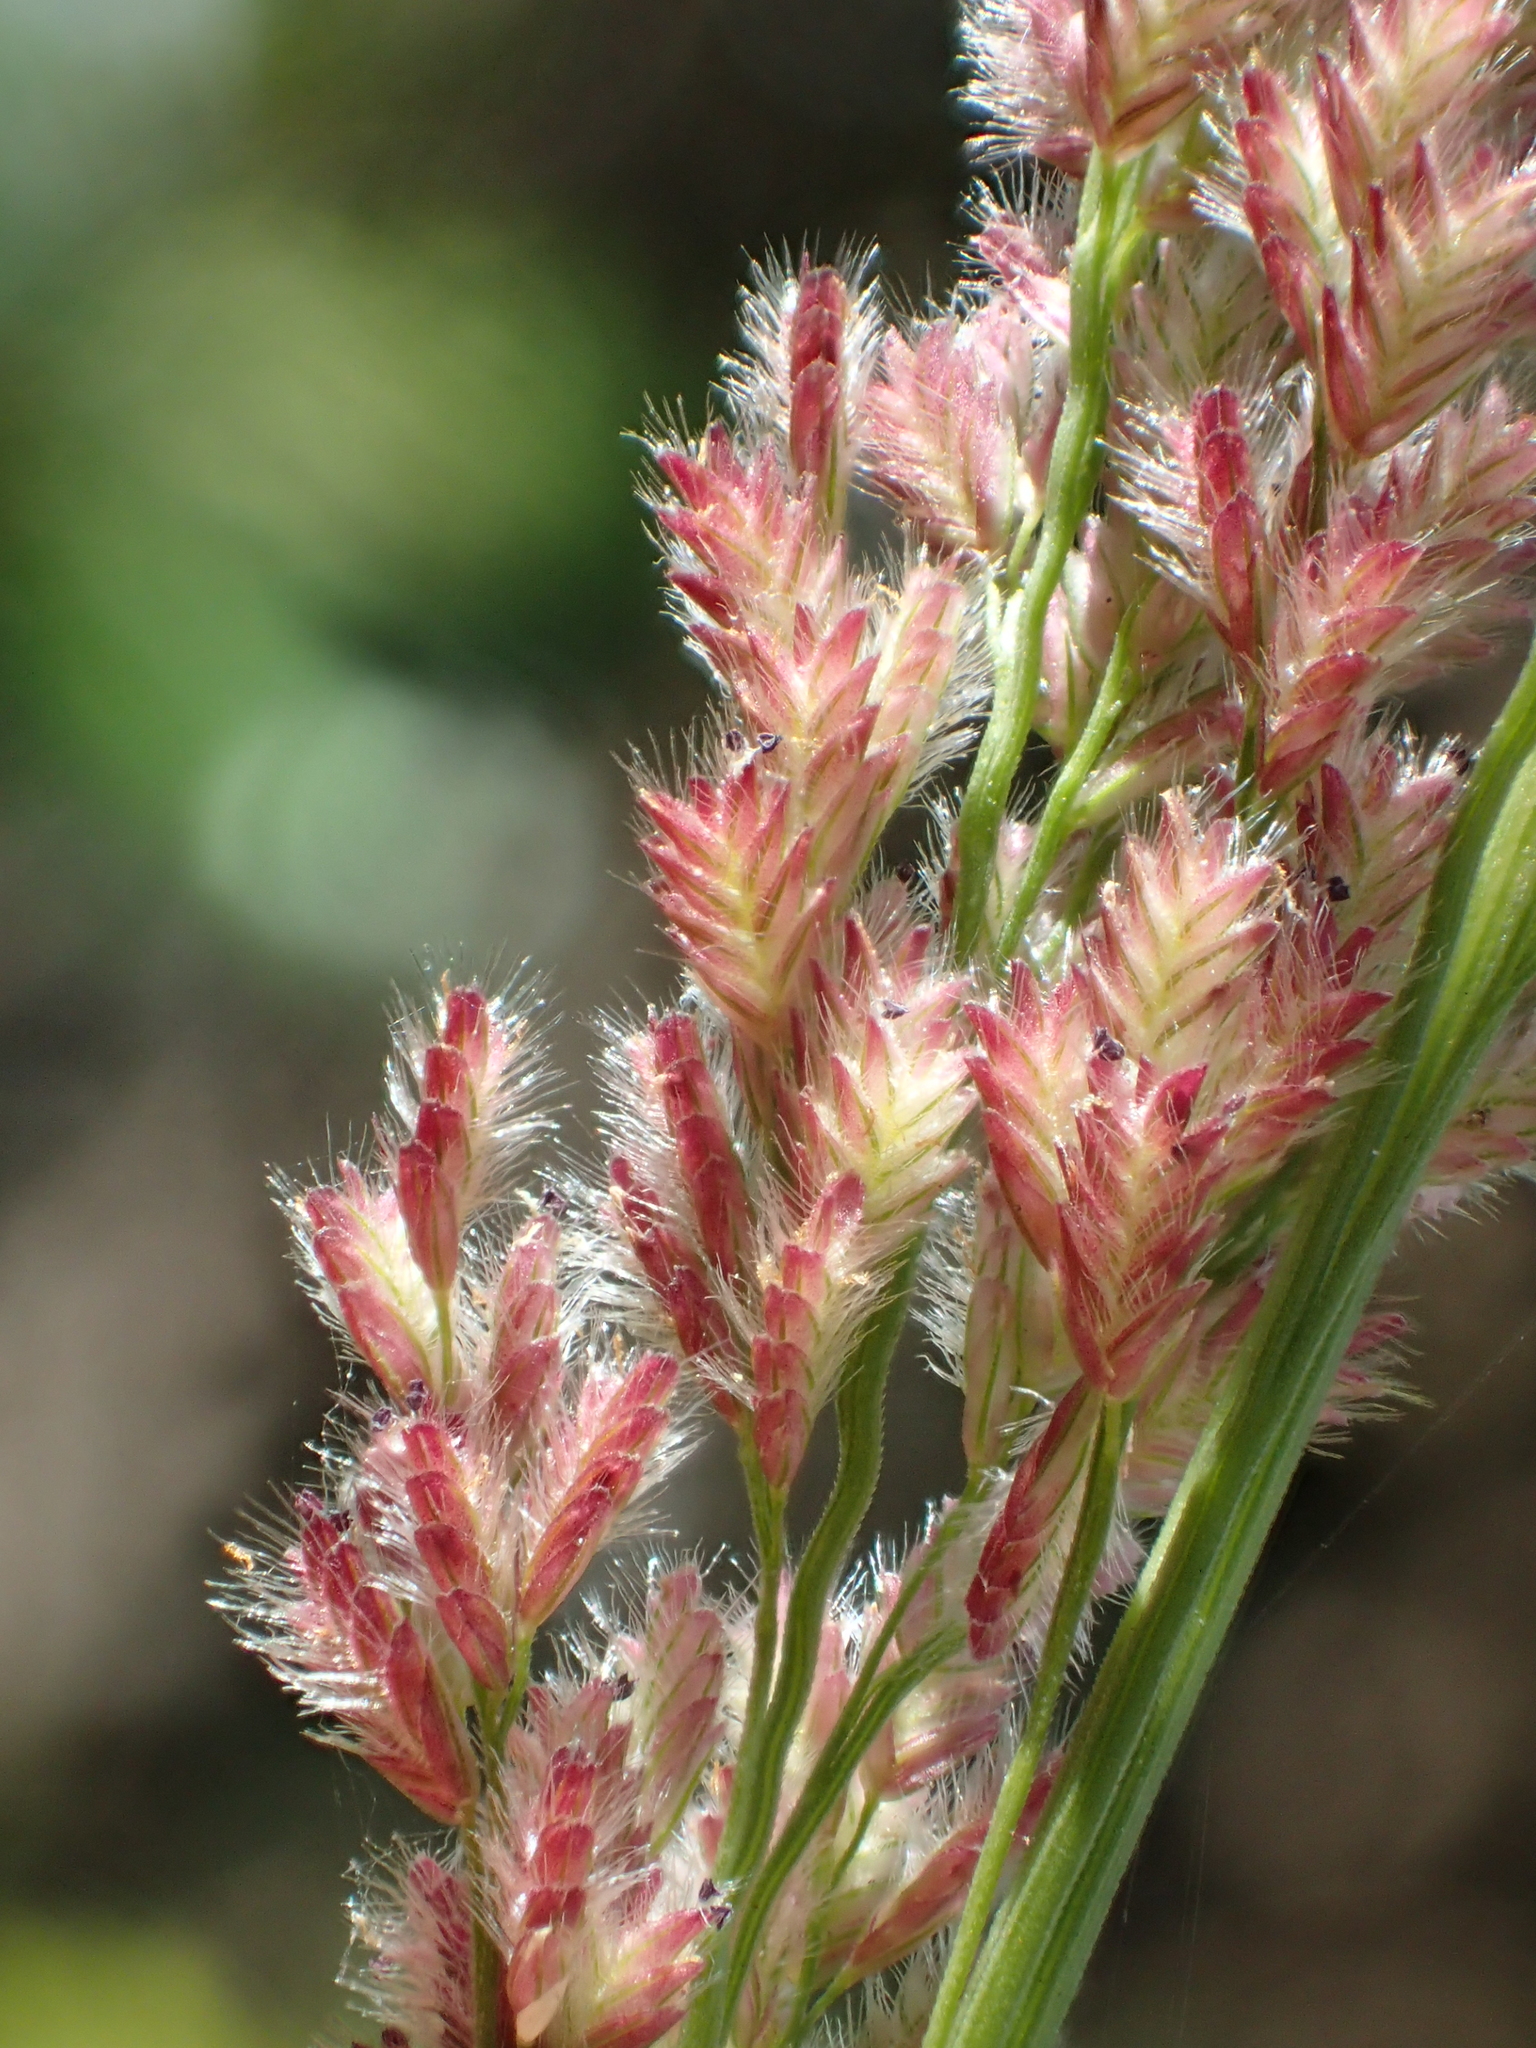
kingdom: Plantae
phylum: Tracheophyta
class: Liliopsida
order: Poales
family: Poaceae
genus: Eragrostis
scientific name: Eragrostis ciliaris
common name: Gophertail lovegrass
